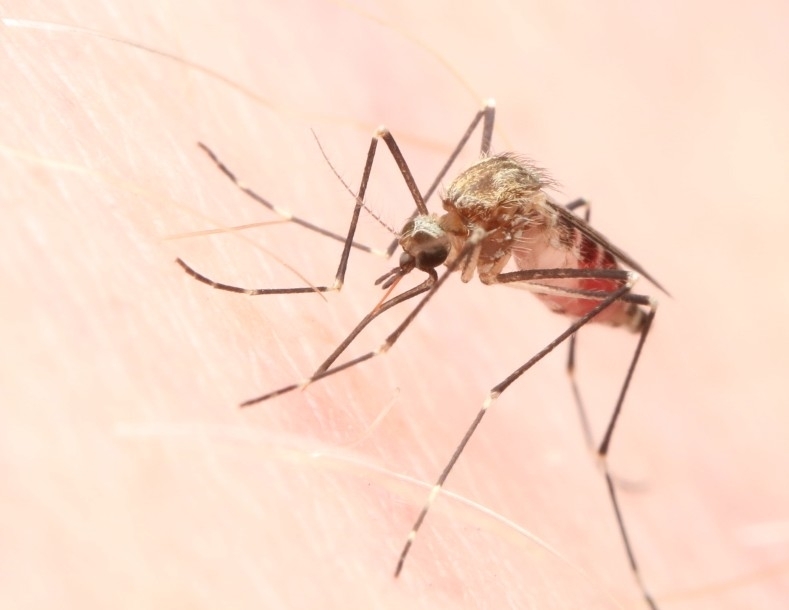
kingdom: Animalia
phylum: Arthropoda
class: Insecta
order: Diptera
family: Culicidae
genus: Aedes
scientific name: Aedes epactius
